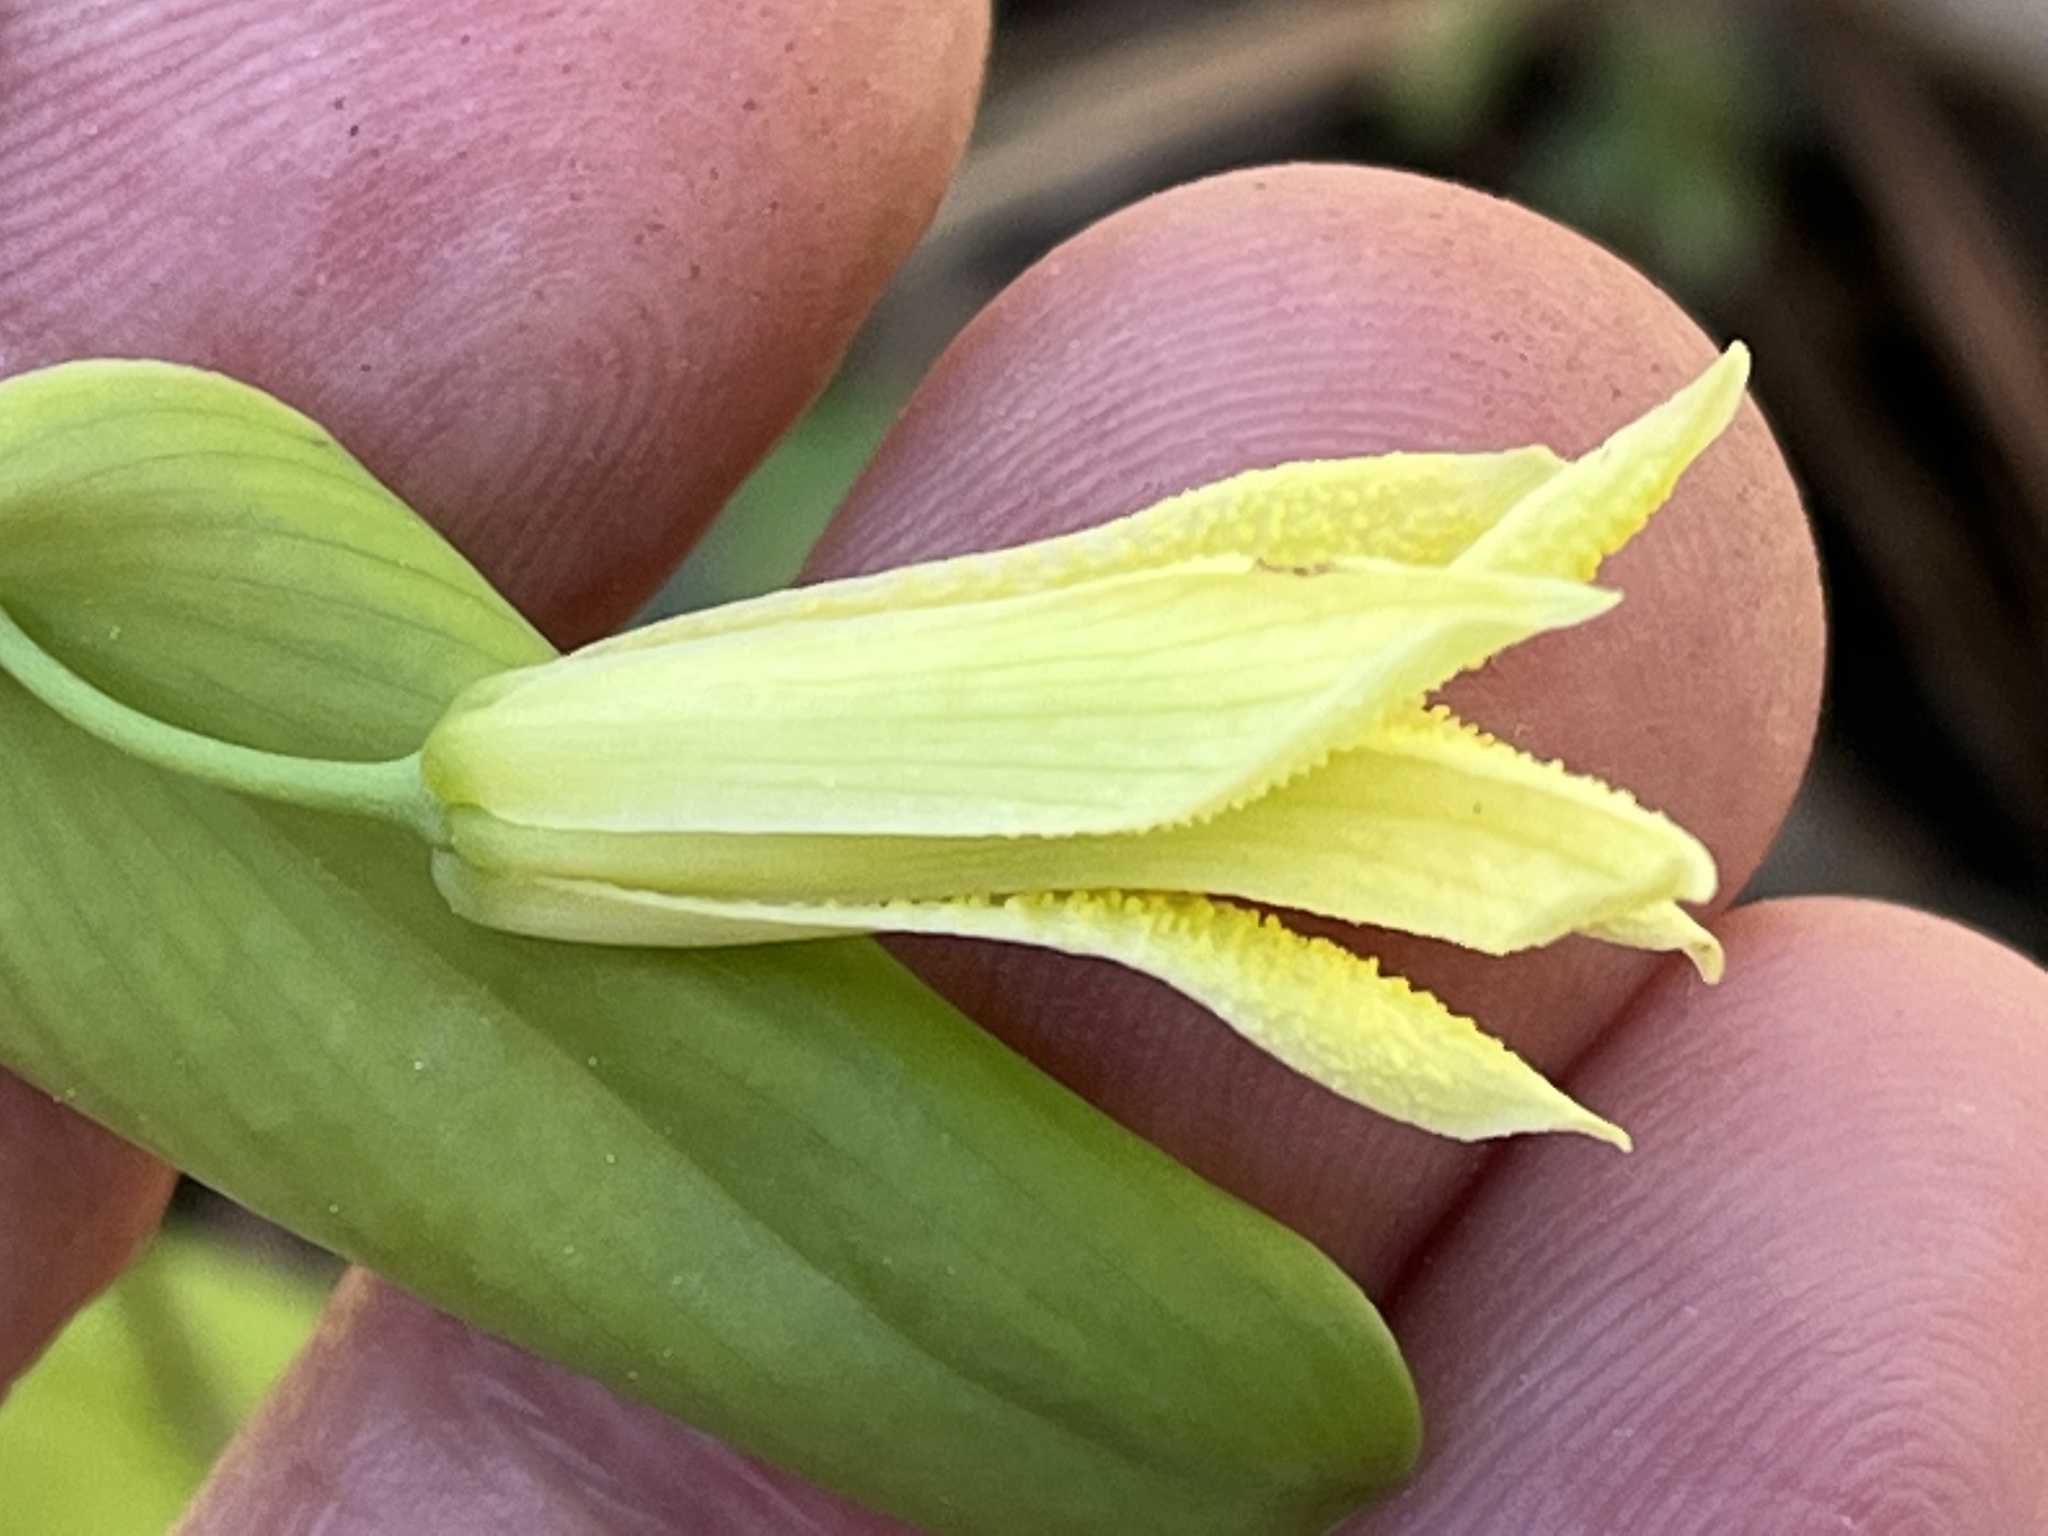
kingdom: Plantae
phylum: Tracheophyta
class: Liliopsida
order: Liliales
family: Colchicaceae
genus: Uvularia
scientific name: Uvularia perfoliata
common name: Perfoliate bellwort
